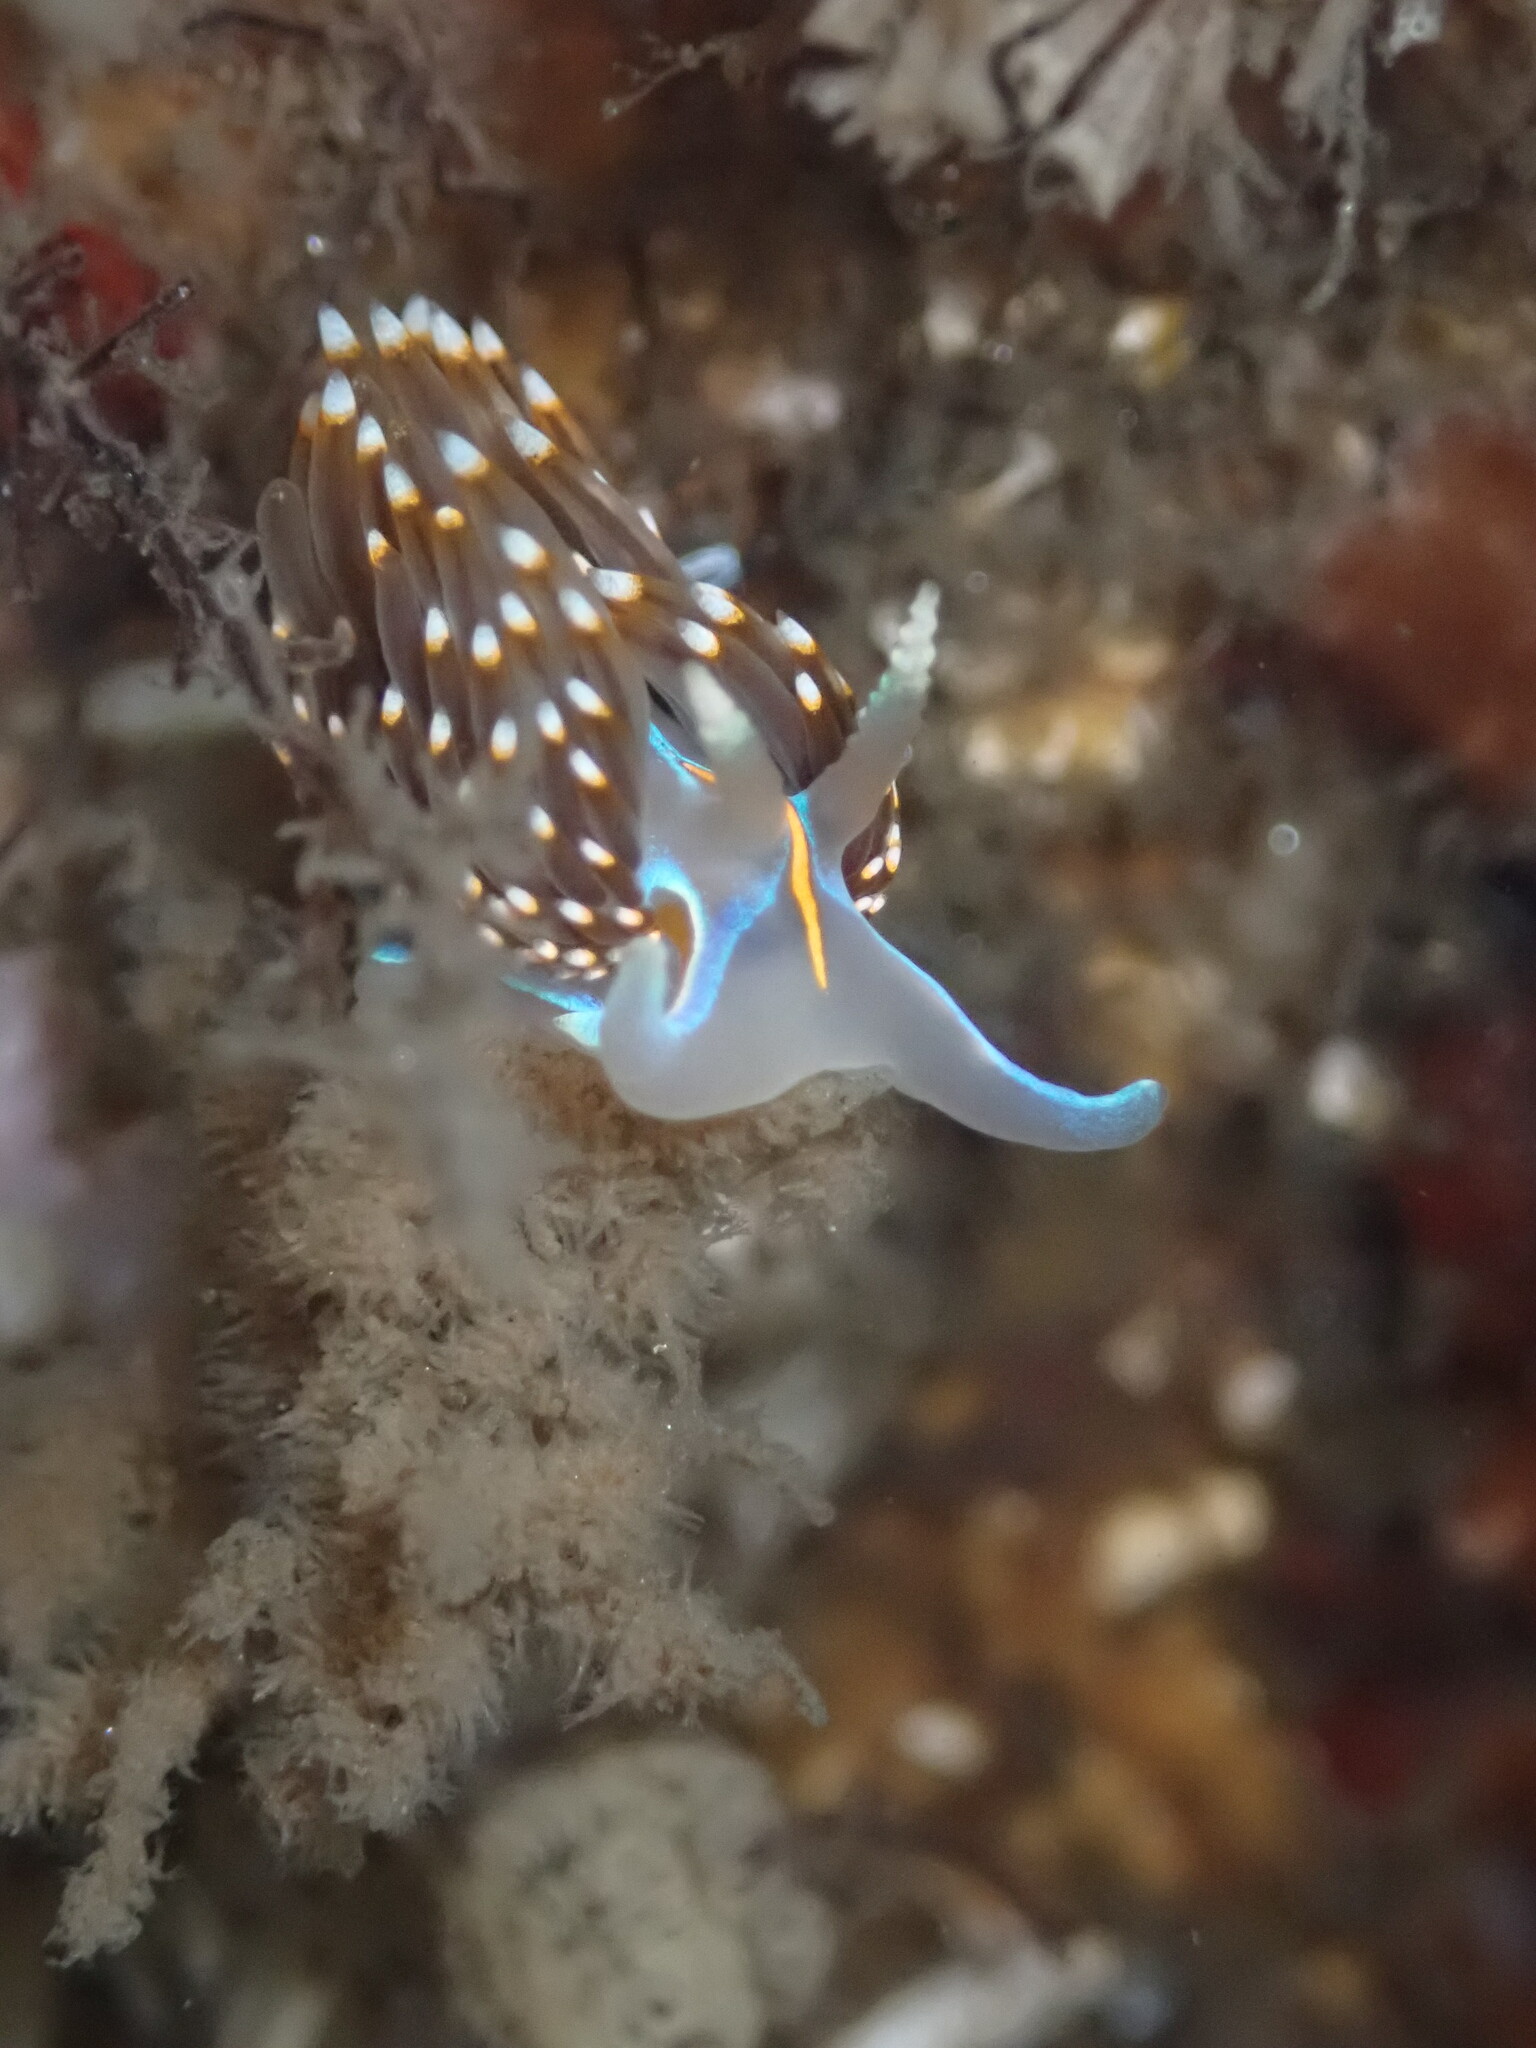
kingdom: Animalia
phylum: Mollusca
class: Gastropoda
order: Nudibranchia
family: Myrrhinidae
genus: Hermissenda
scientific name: Hermissenda opalescens
